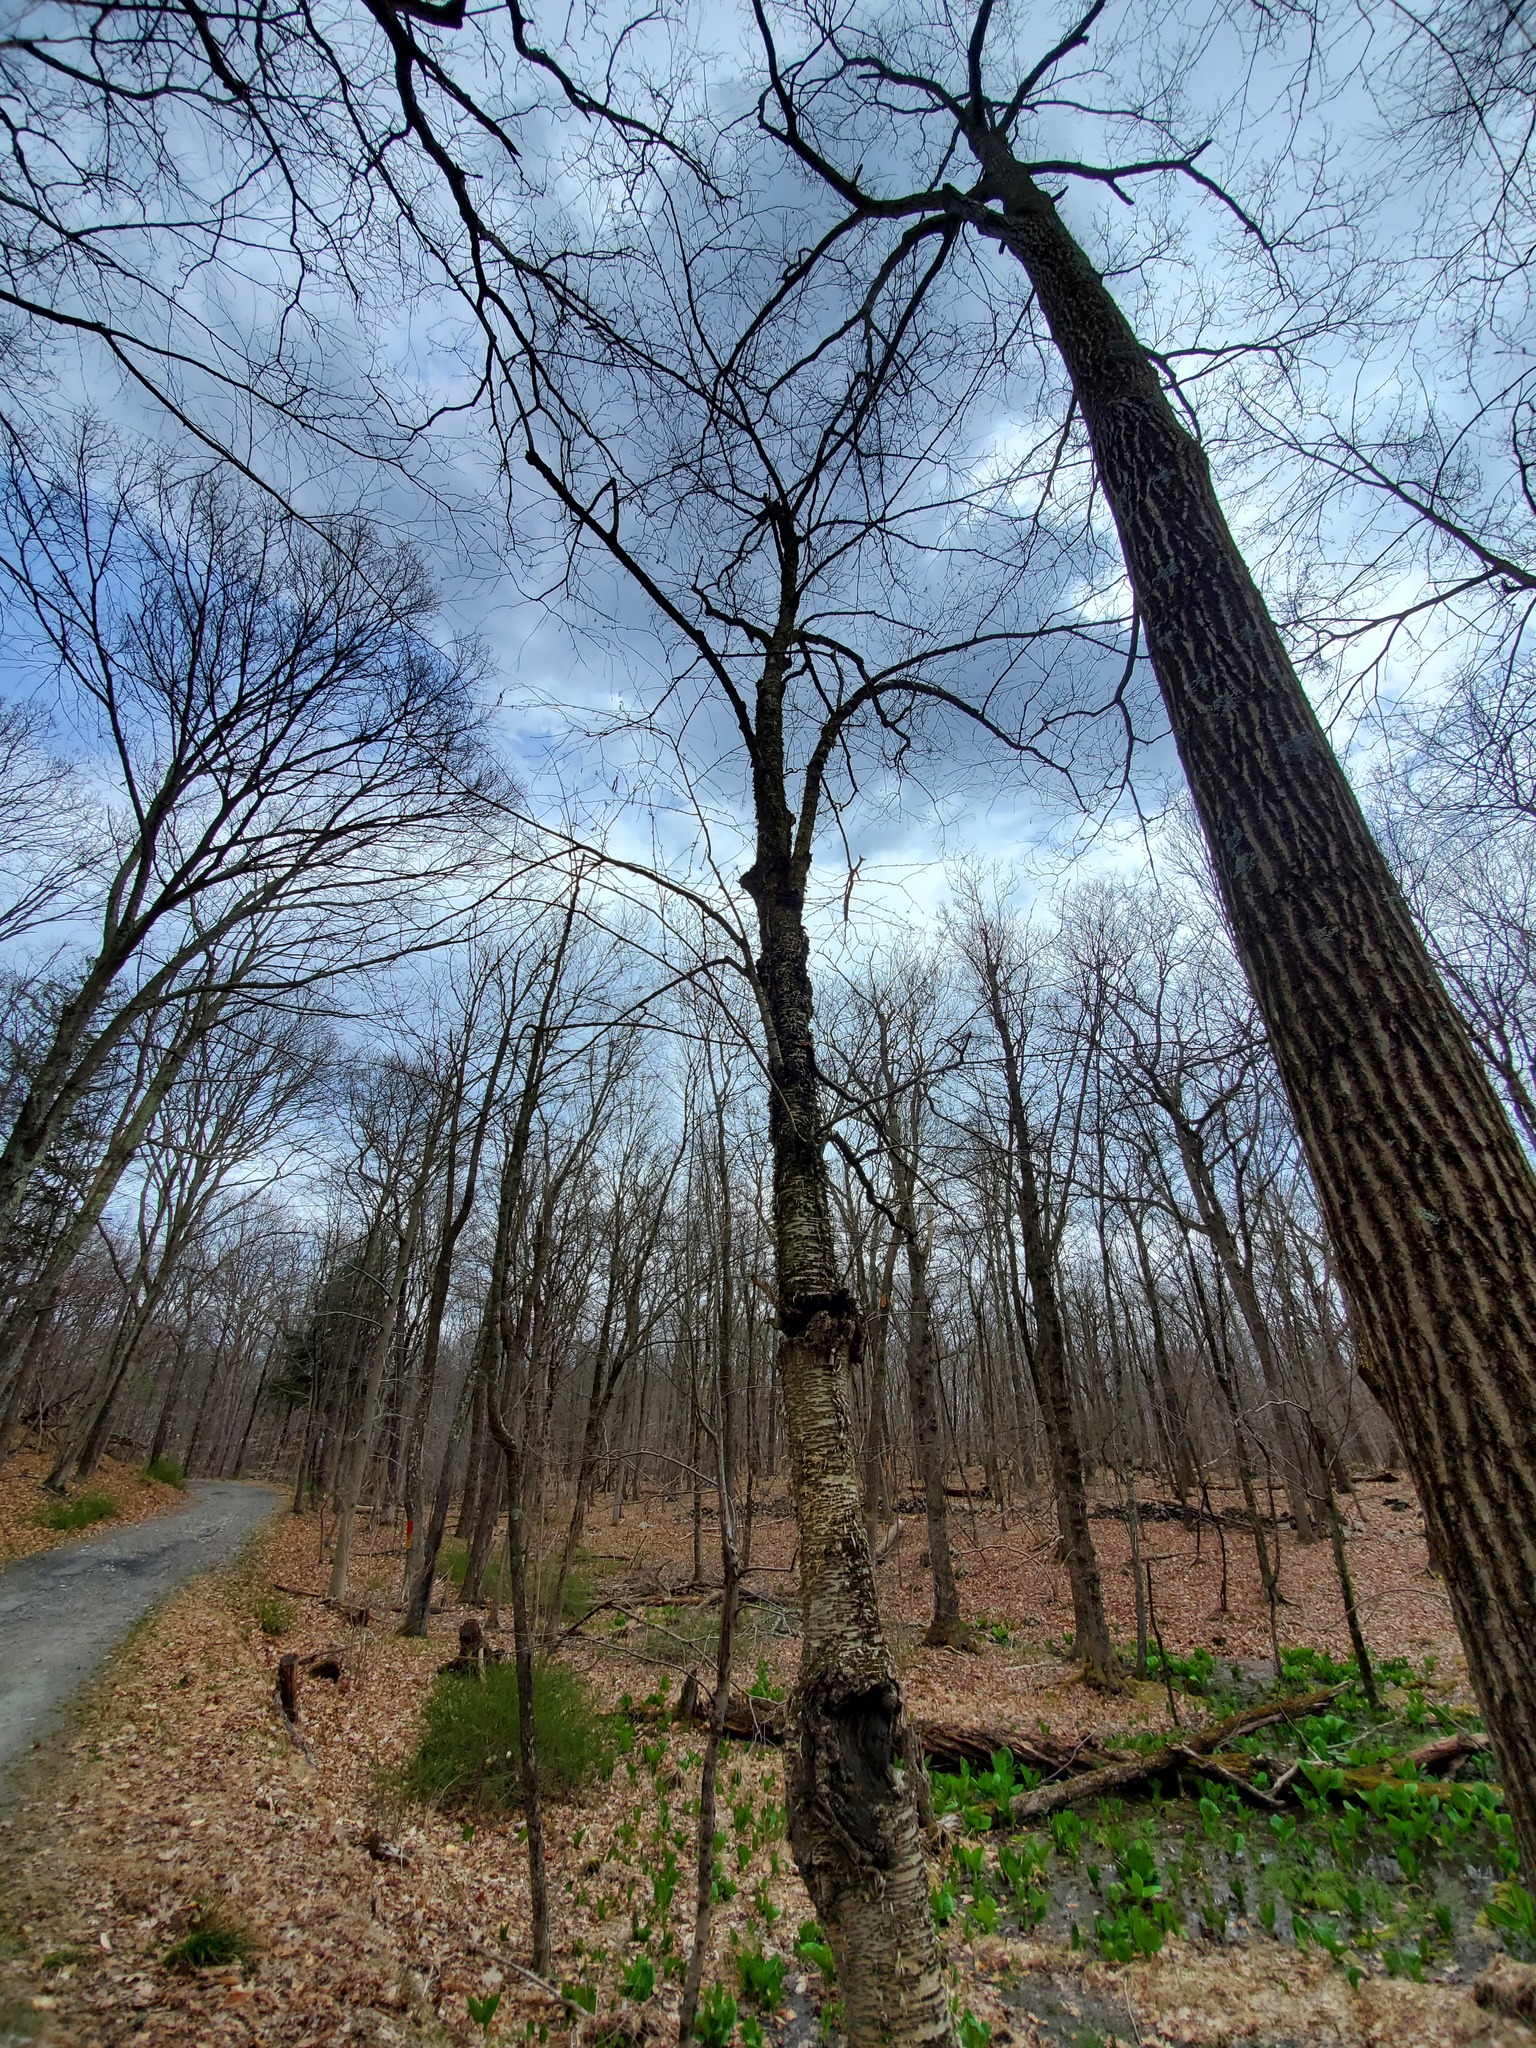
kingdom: Plantae
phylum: Tracheophyta
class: Magnoliopsida
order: Fagales
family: Betulaceae
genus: Betula
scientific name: Betula alleghaniensis
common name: Yellow birch
